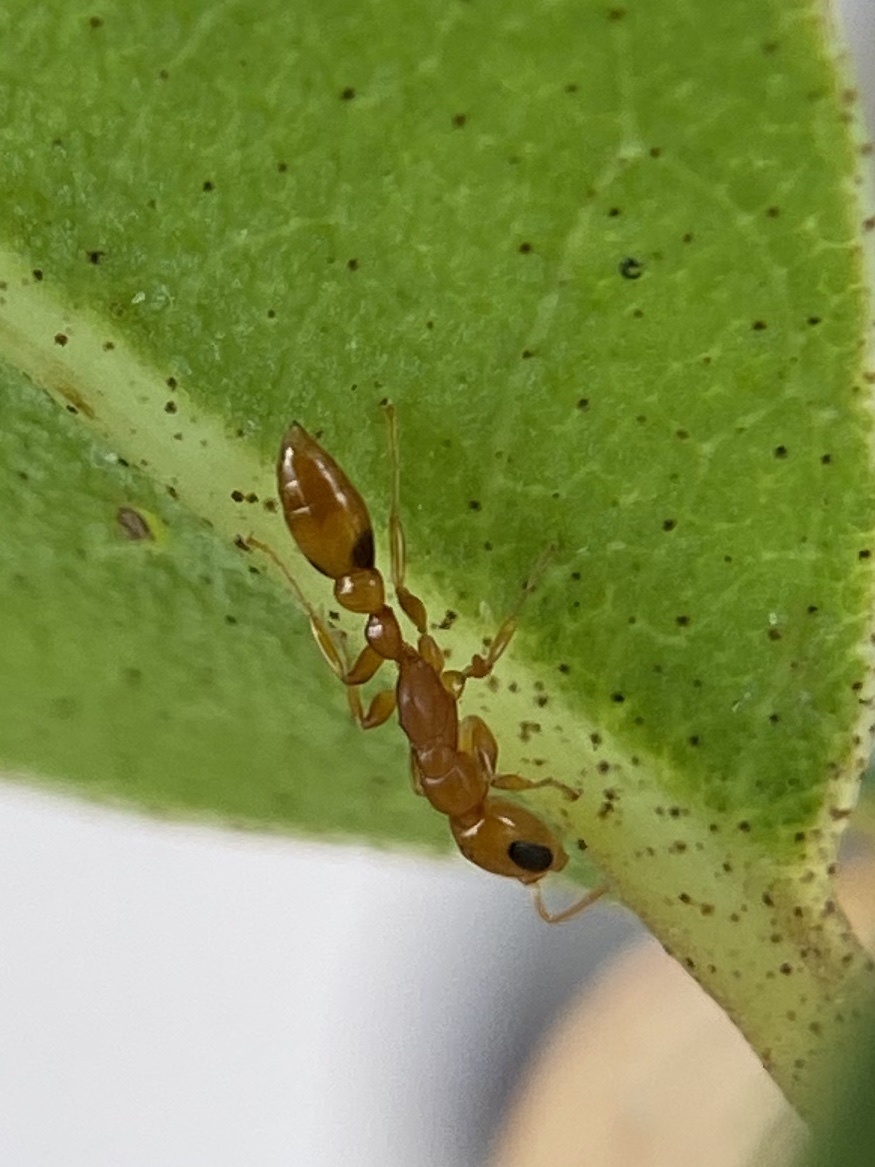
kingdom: Animalia
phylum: Arthropoda
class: Insecta
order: Hymenoptera
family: Formicidae
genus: Pseudomyrmex
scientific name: Pseudomyrmex simplex
